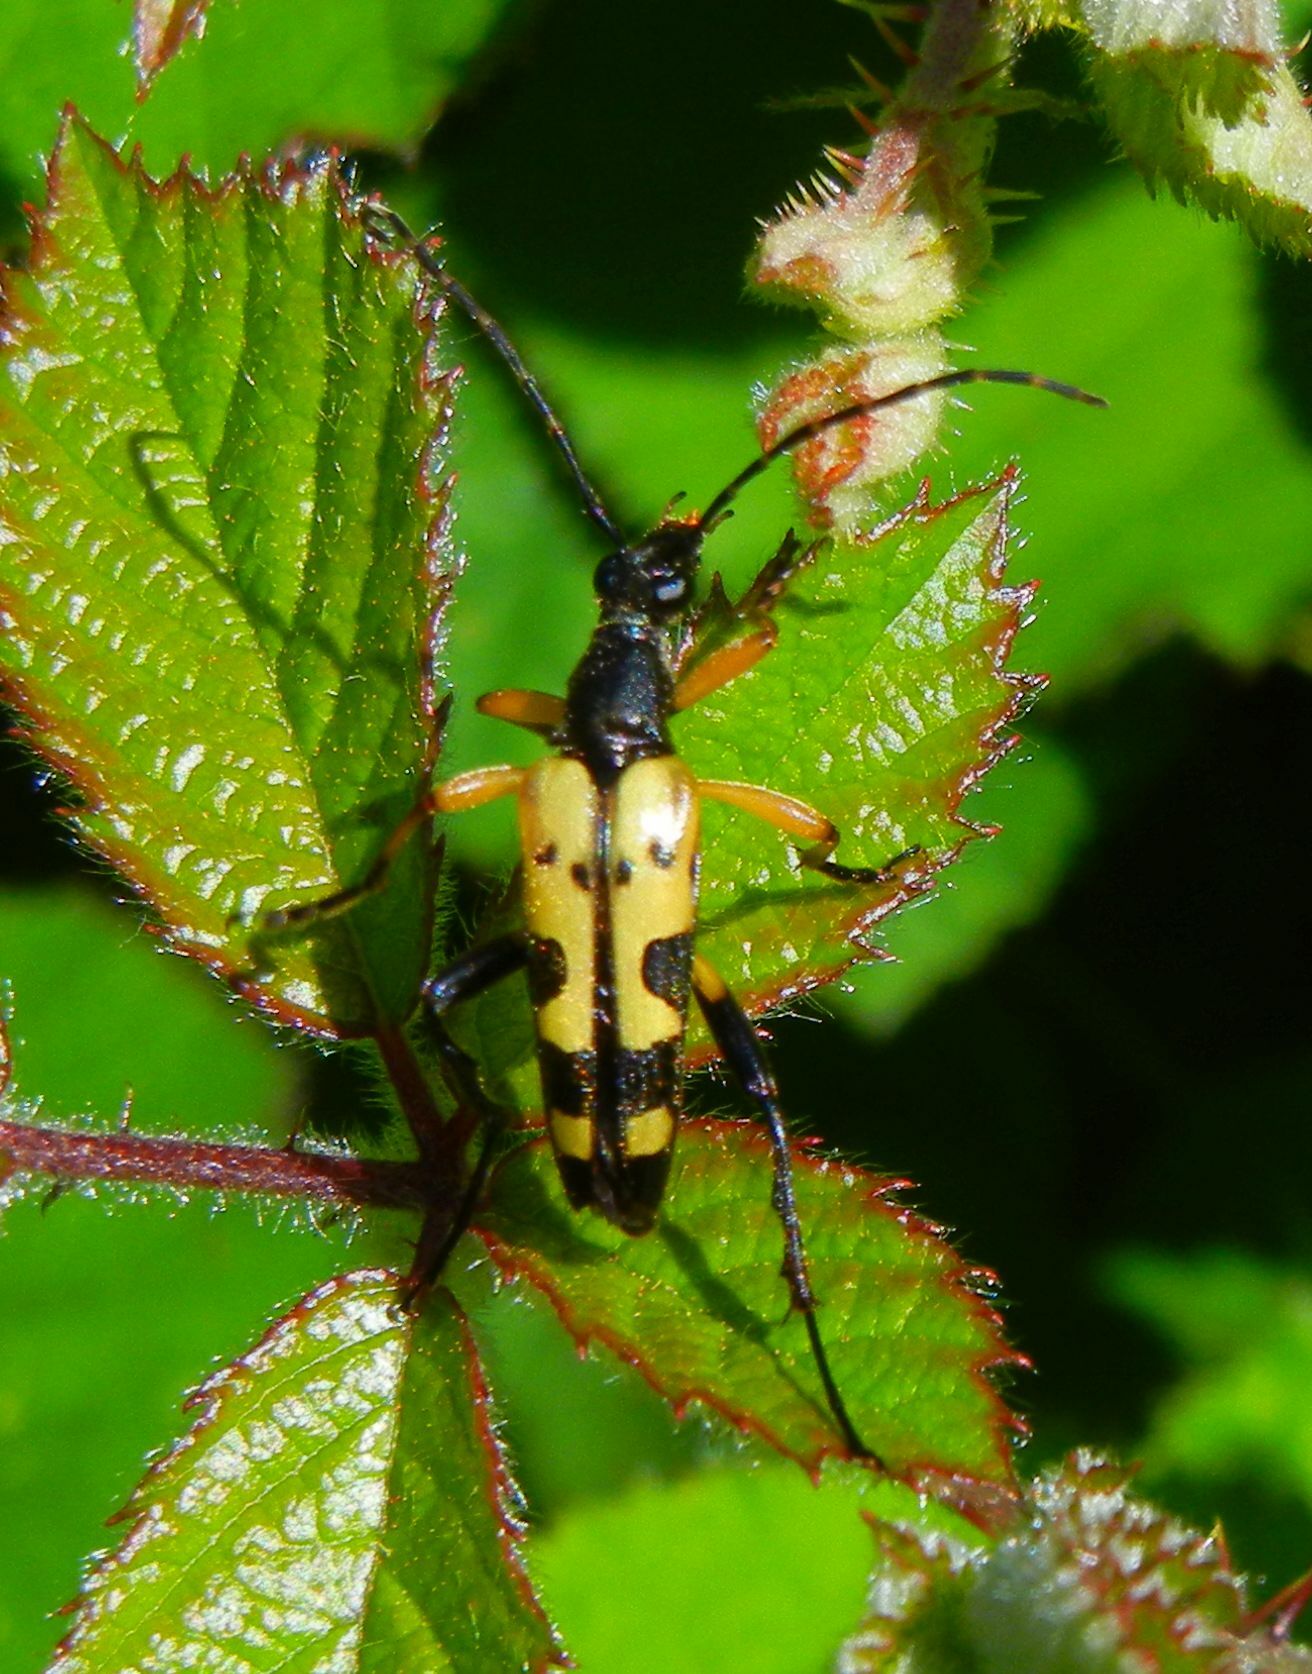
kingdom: Animalia
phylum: Arthropoda
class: Insecta
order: Coleoptera
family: Cerambycidae
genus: Rutpela
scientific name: Rutpela maculata
